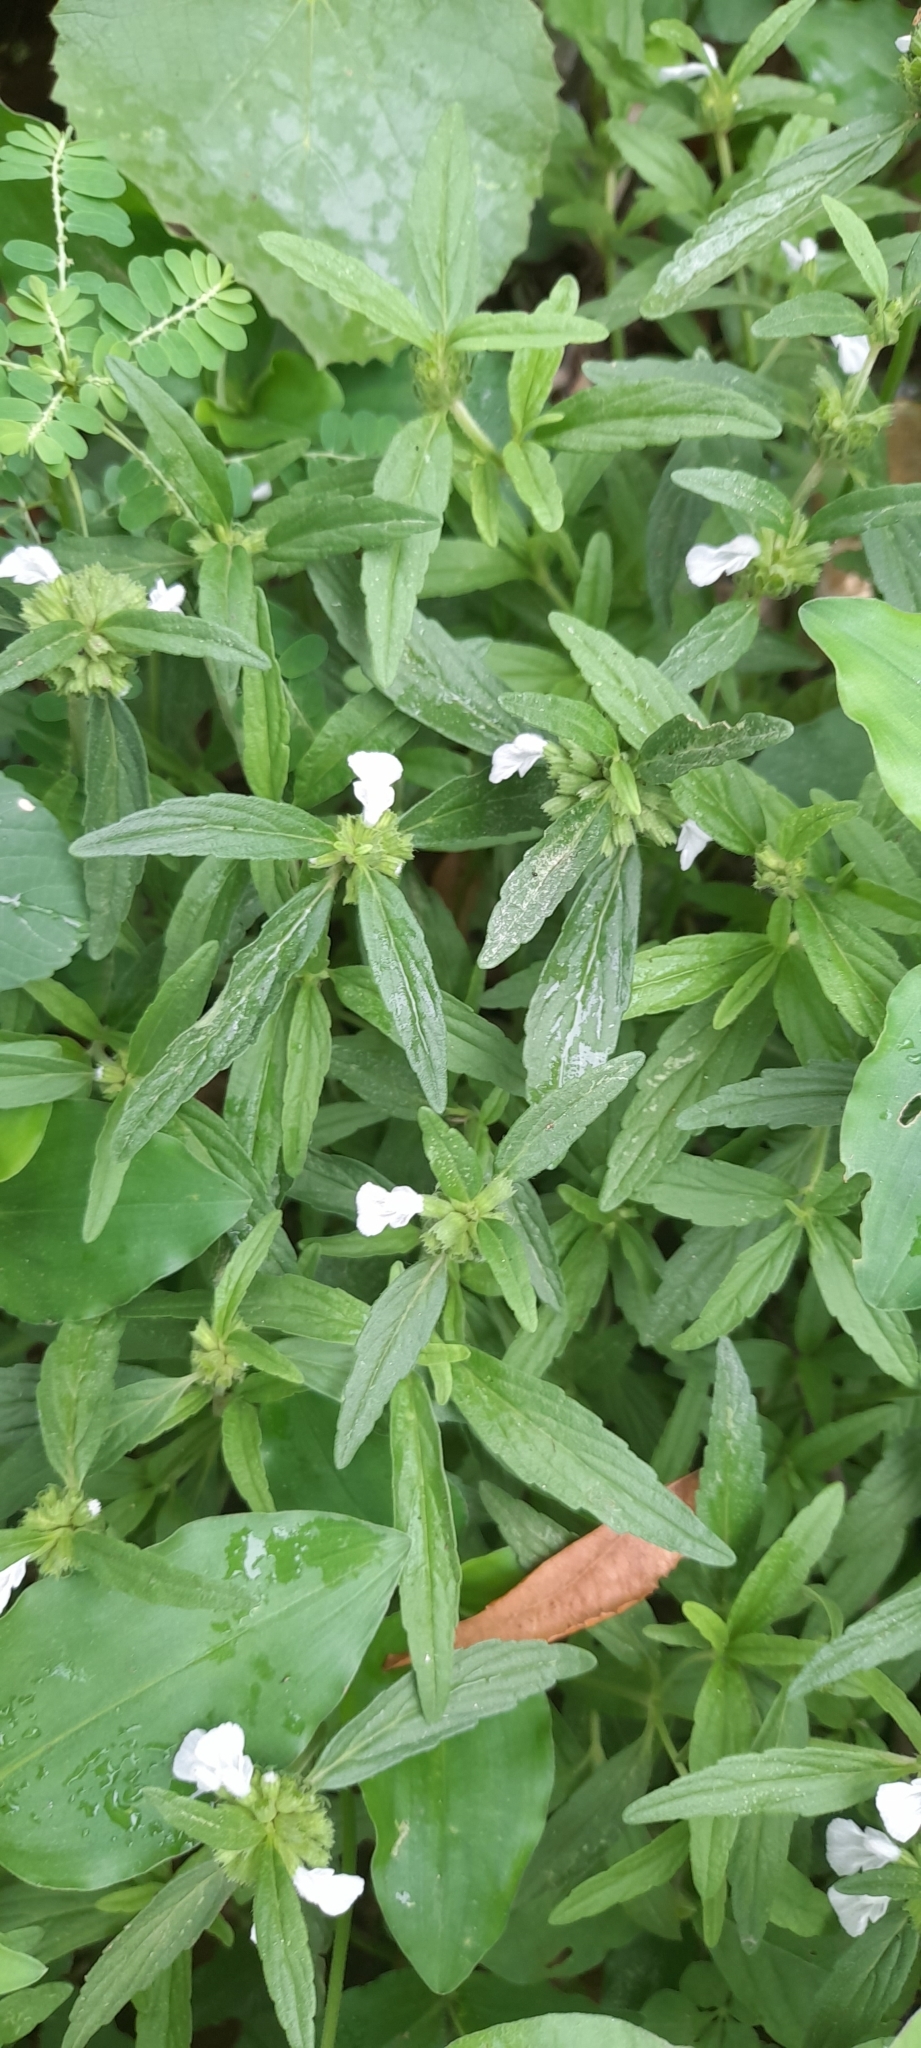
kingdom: Plantae
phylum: Tracheophyta
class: Magnoliopsida
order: Lamiales
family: Lamiaceae
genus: Leucas
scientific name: Leucas aspera
